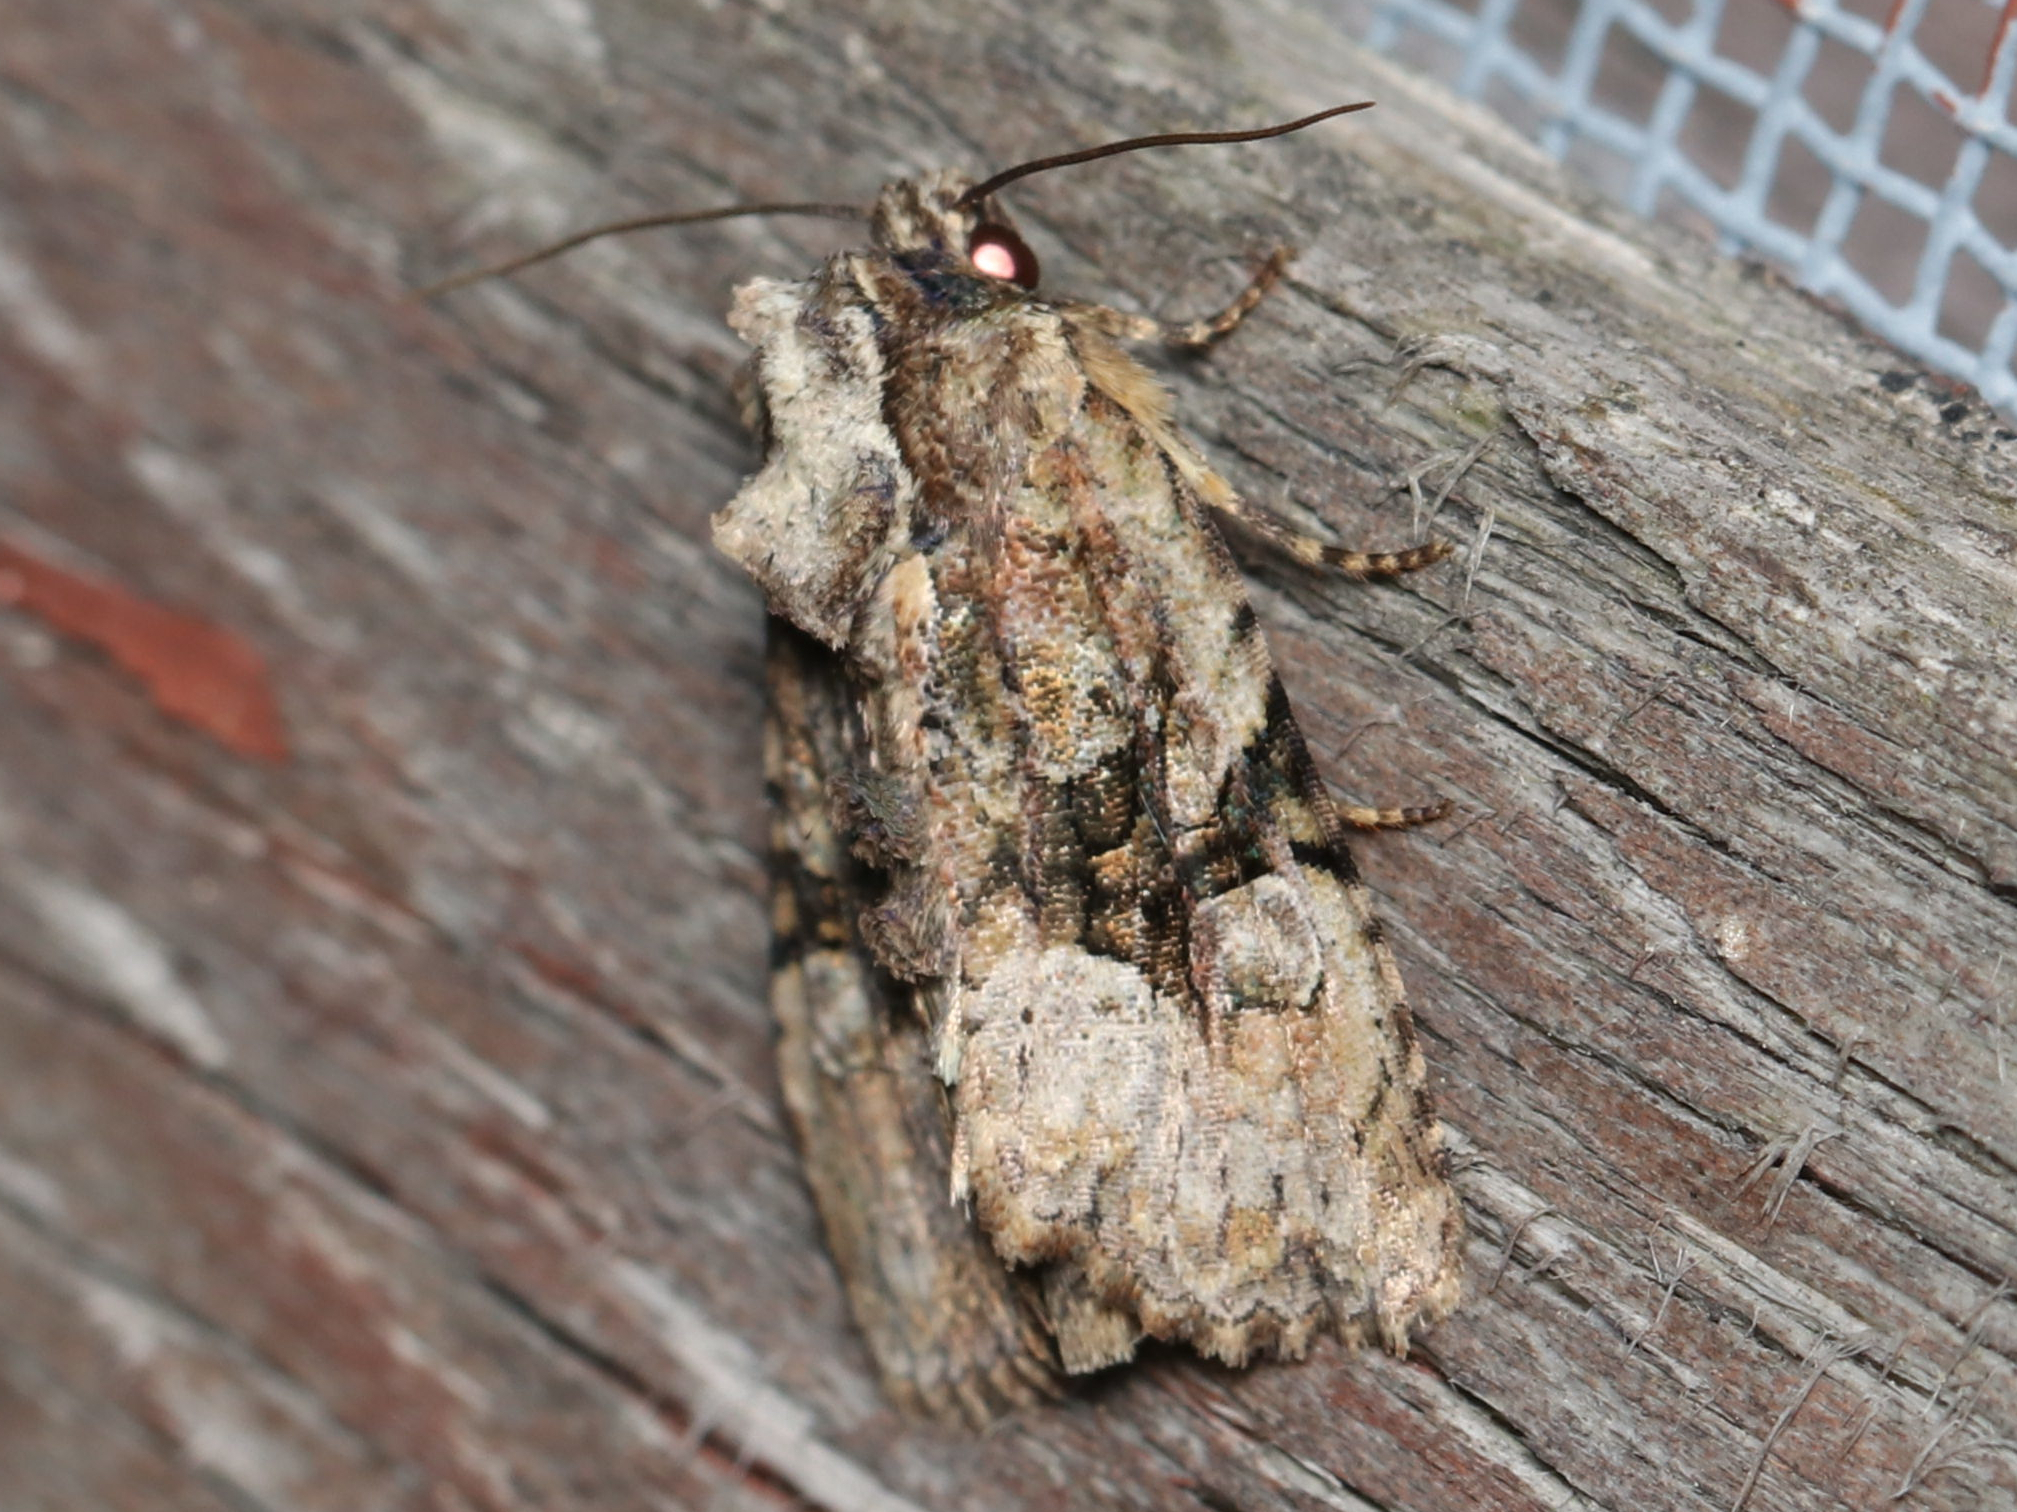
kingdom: Animalia
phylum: Arthropoda
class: Insecta
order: Lepidoptera
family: Noctuidae
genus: Oligia
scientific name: Oligia modica
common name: Black-banded brocade
